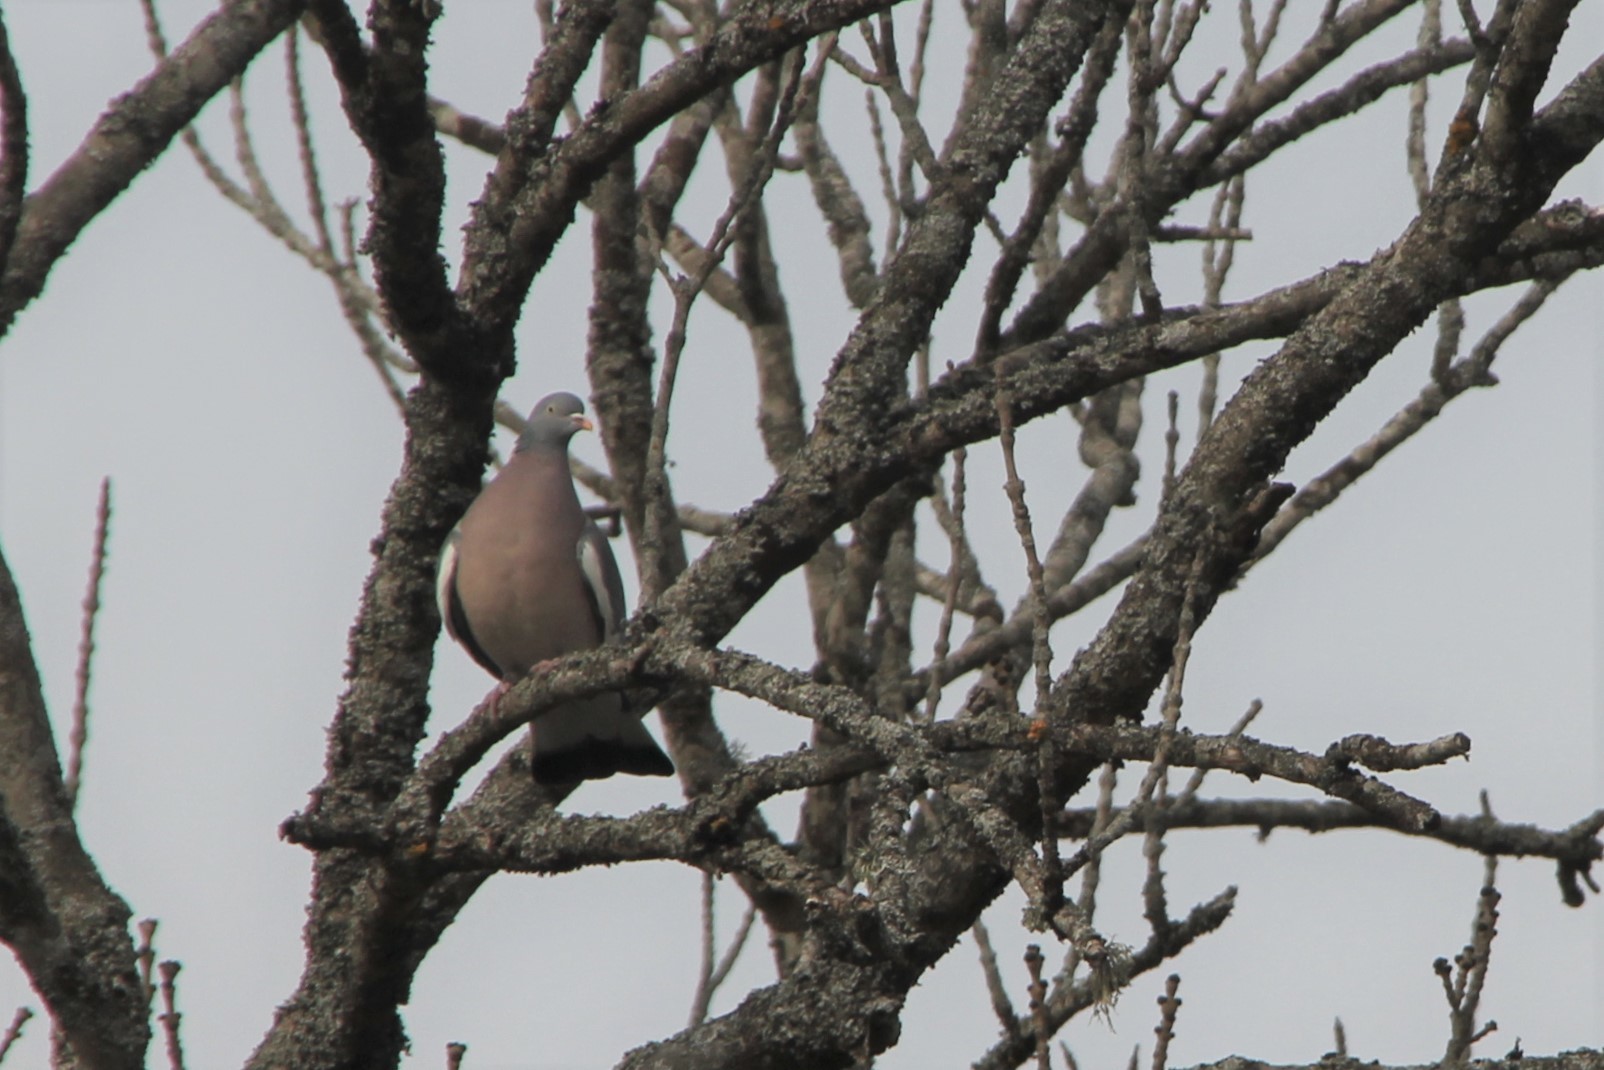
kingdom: Animalia
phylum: Chordata
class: Aves
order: Columbiformes
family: Columbidae
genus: Columba
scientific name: Columba palumbus
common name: Common wood pigeon
